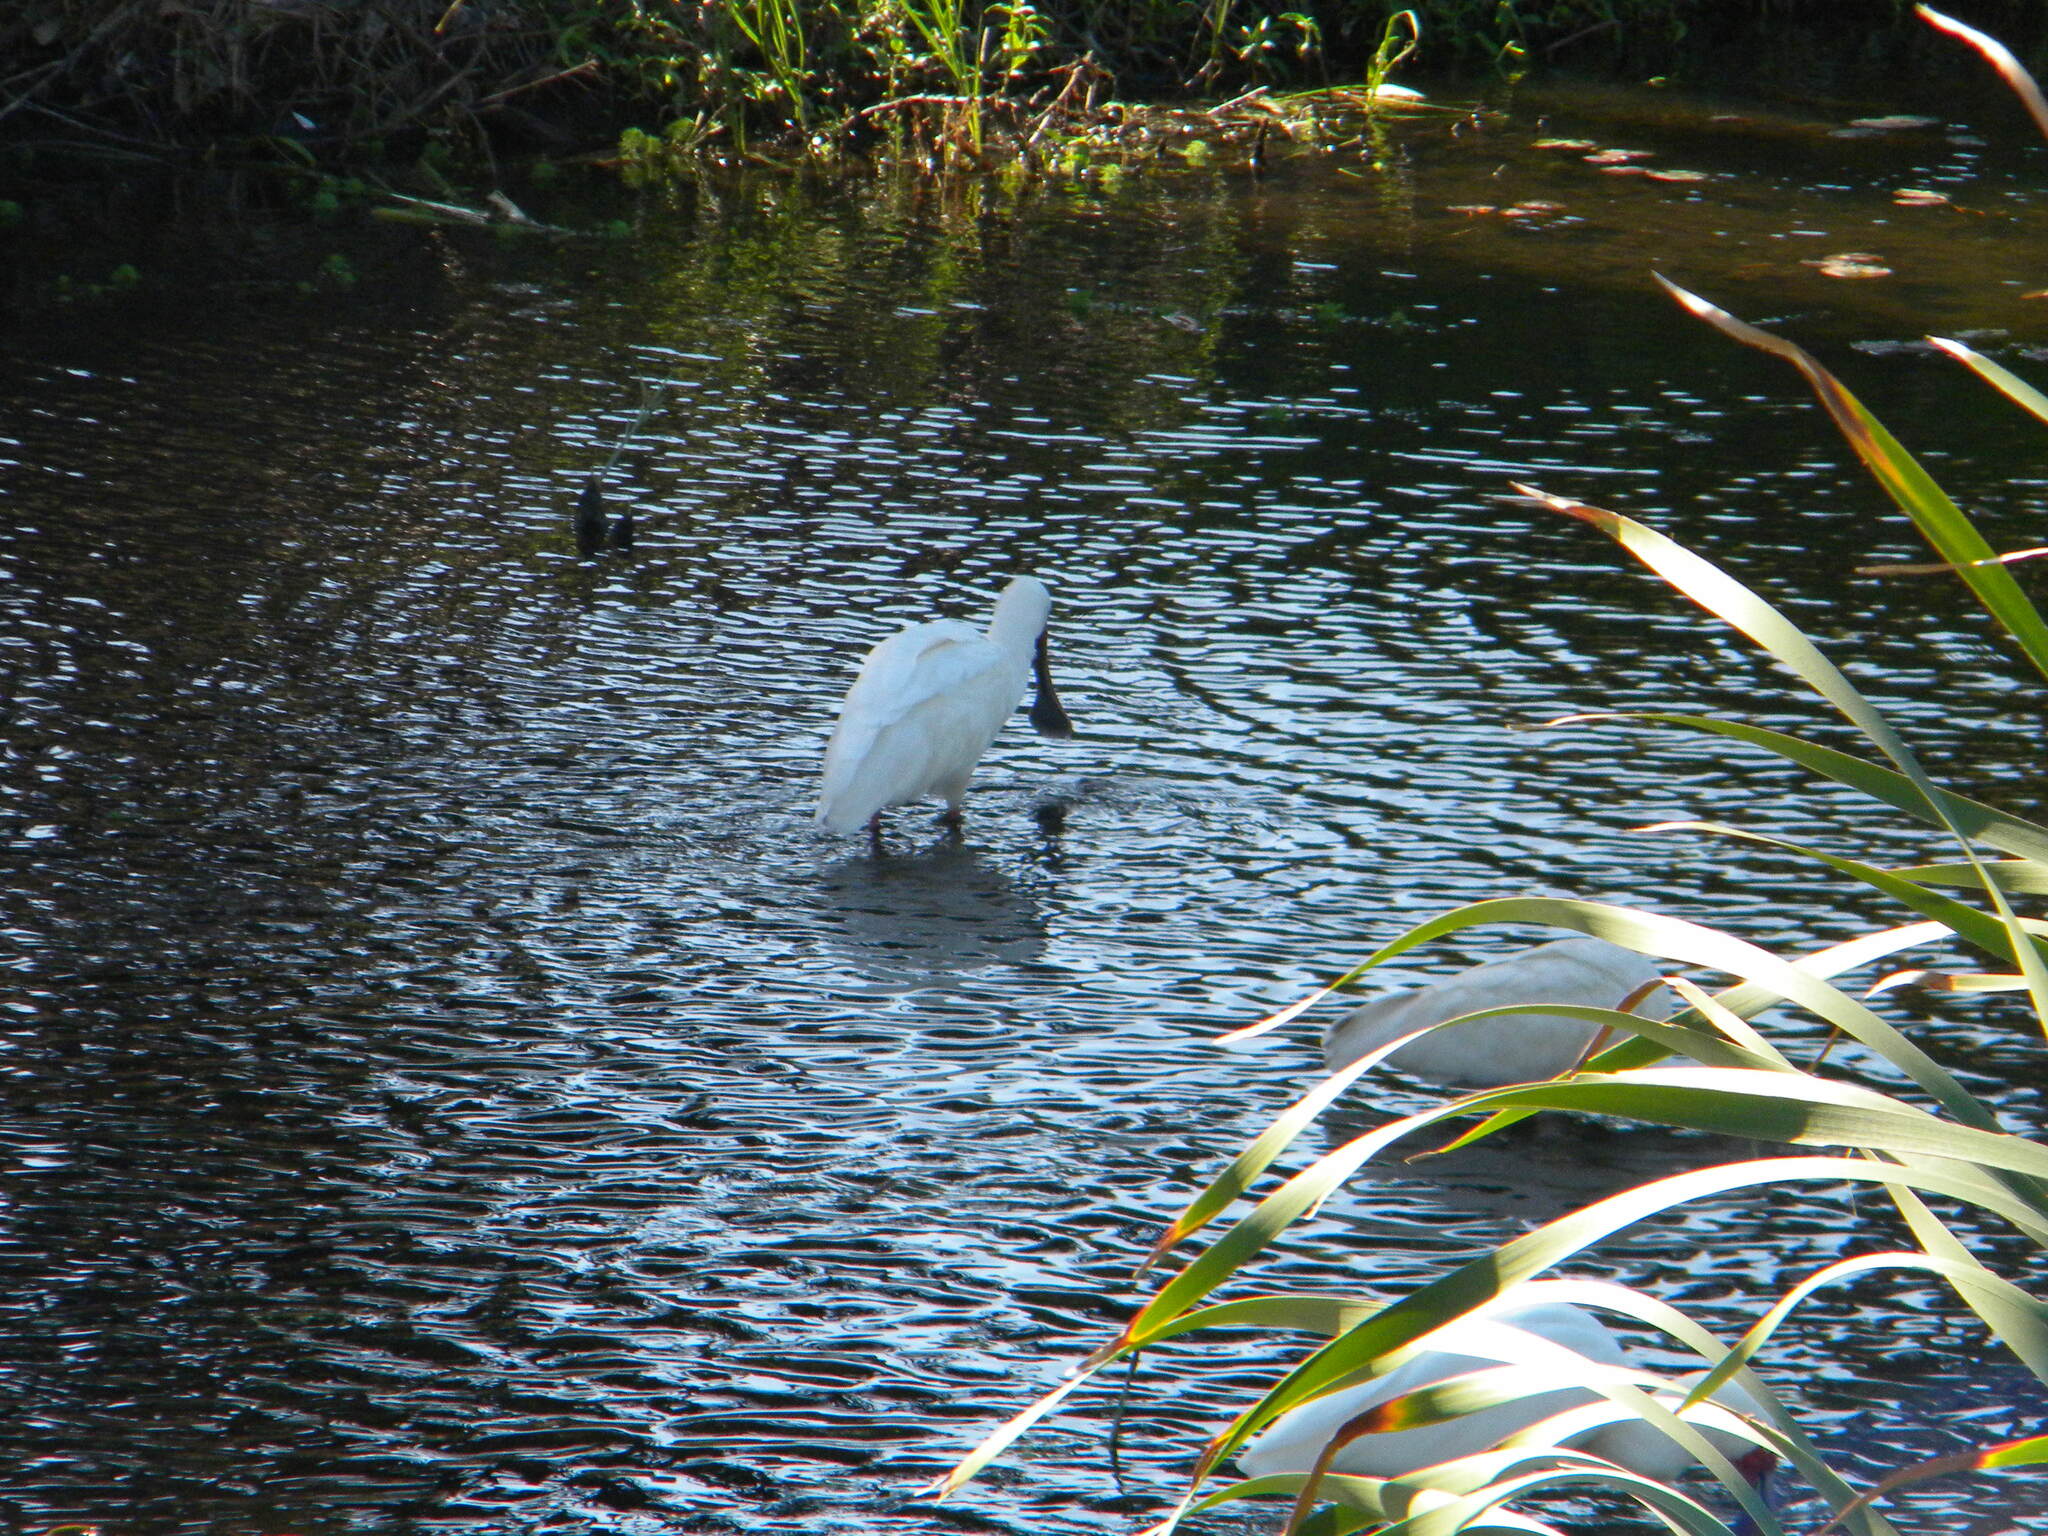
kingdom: Animalia
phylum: Chordata
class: Aves
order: Pelecaniformes
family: Threskiornithidae
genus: Platalea
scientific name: Platalea alba
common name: African spoonbill
